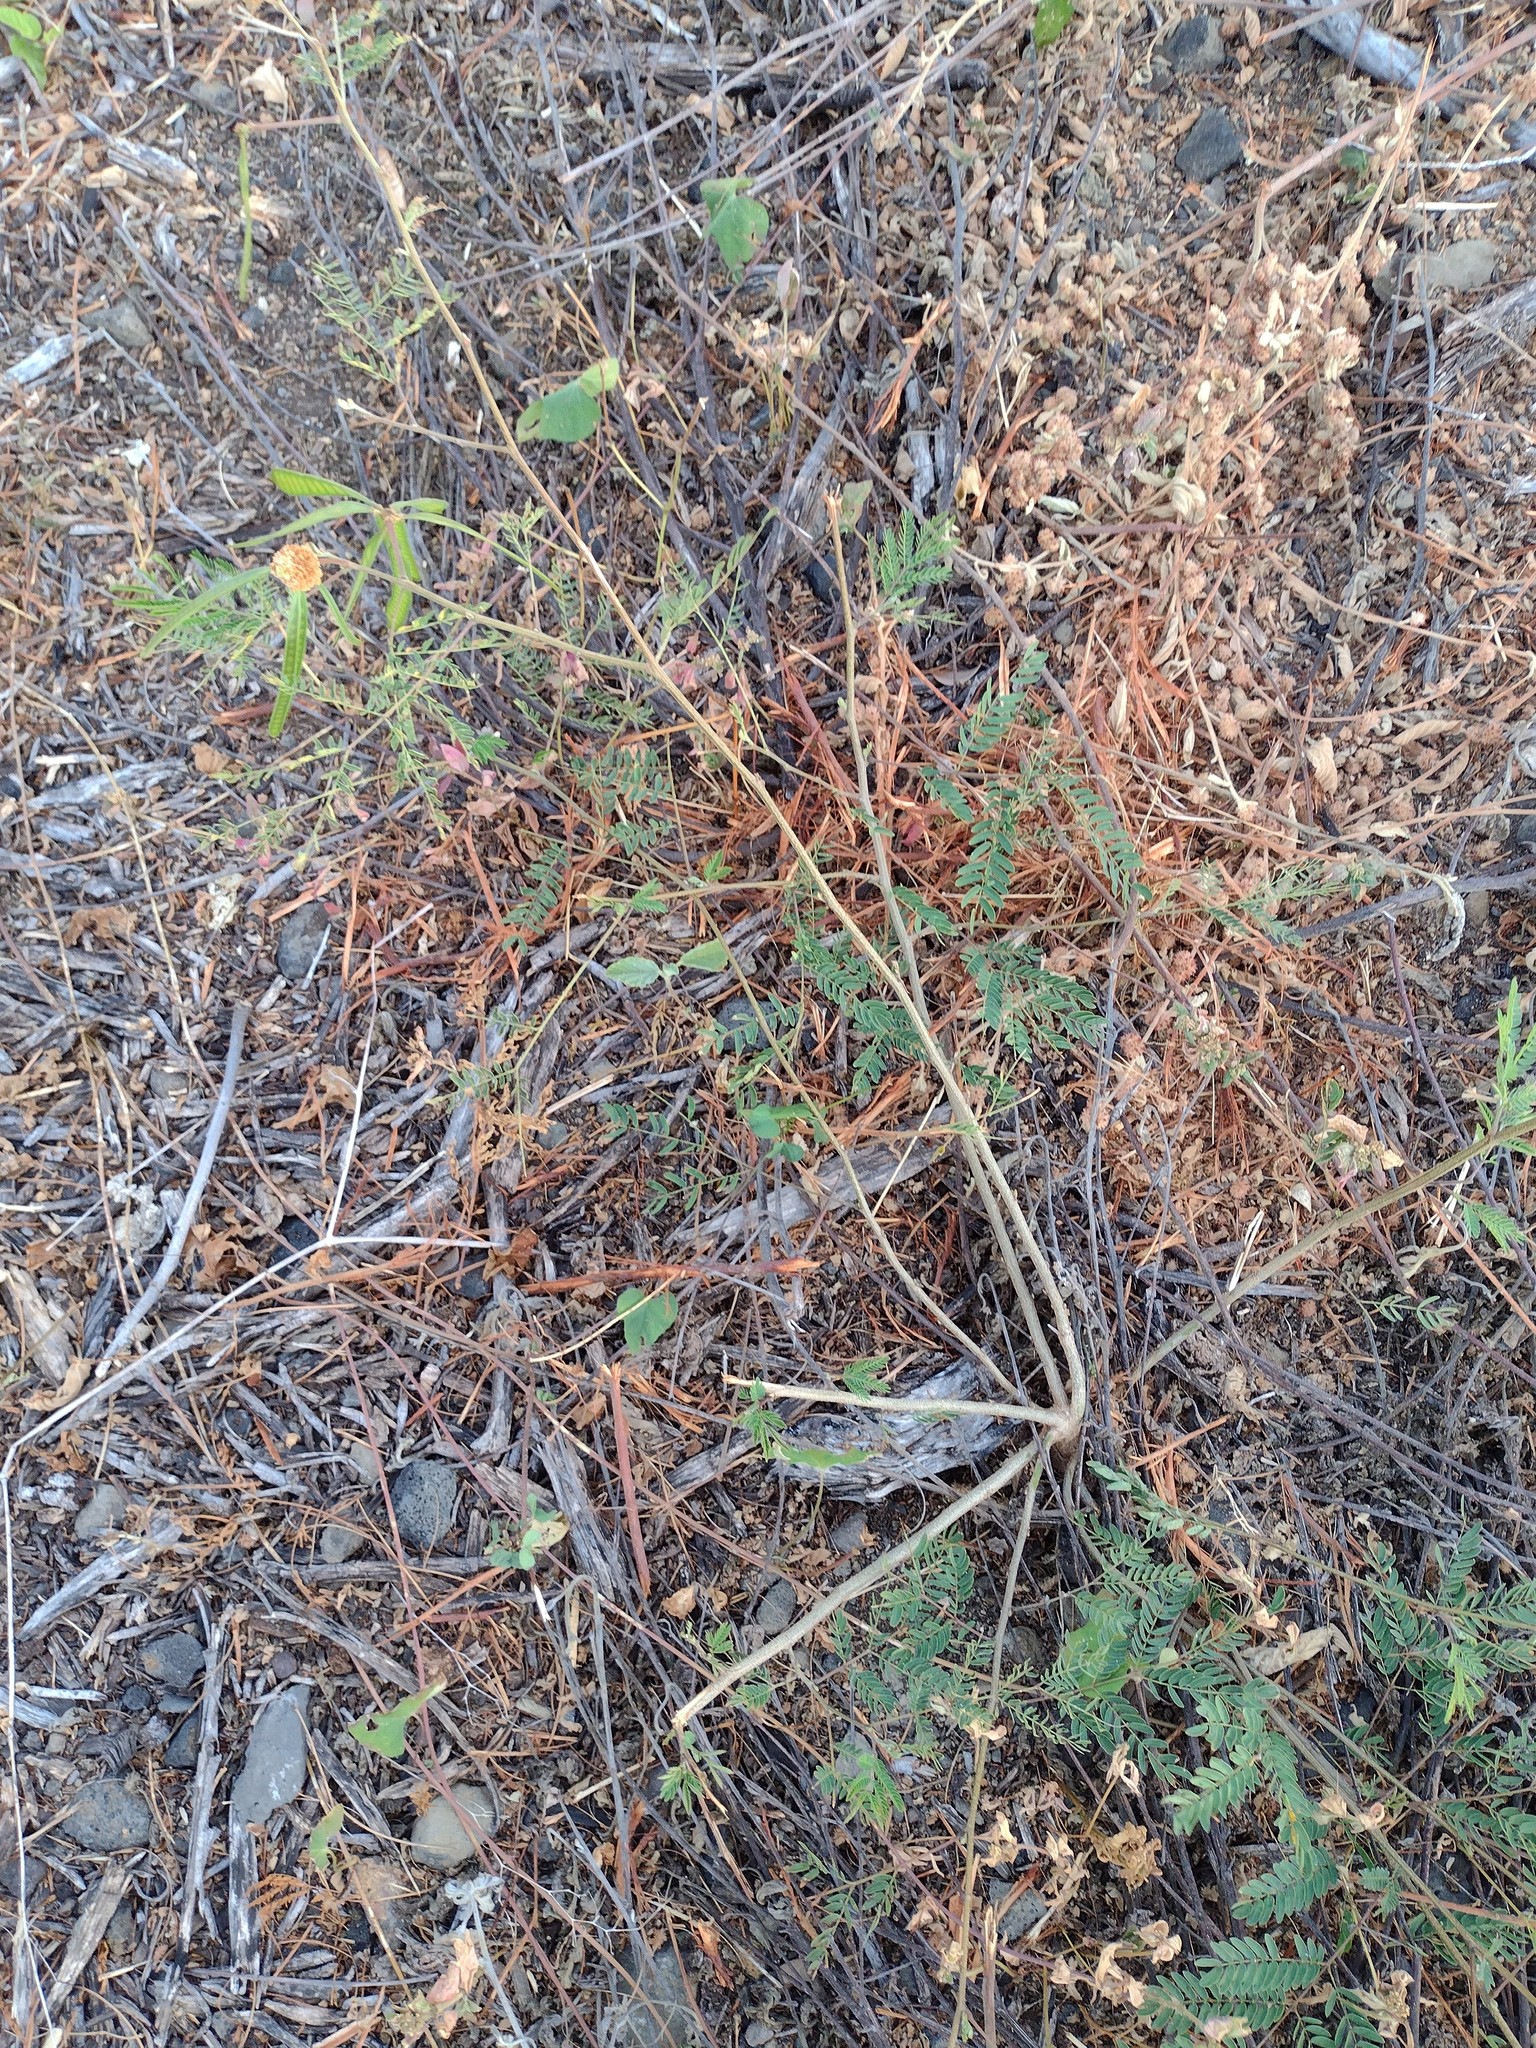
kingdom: Plantae
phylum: Tracheophyta
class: Magnoliopsida
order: Fabales
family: Fabaceae
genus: Leucaena
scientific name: Leucaena leucocephala
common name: White leadtree
